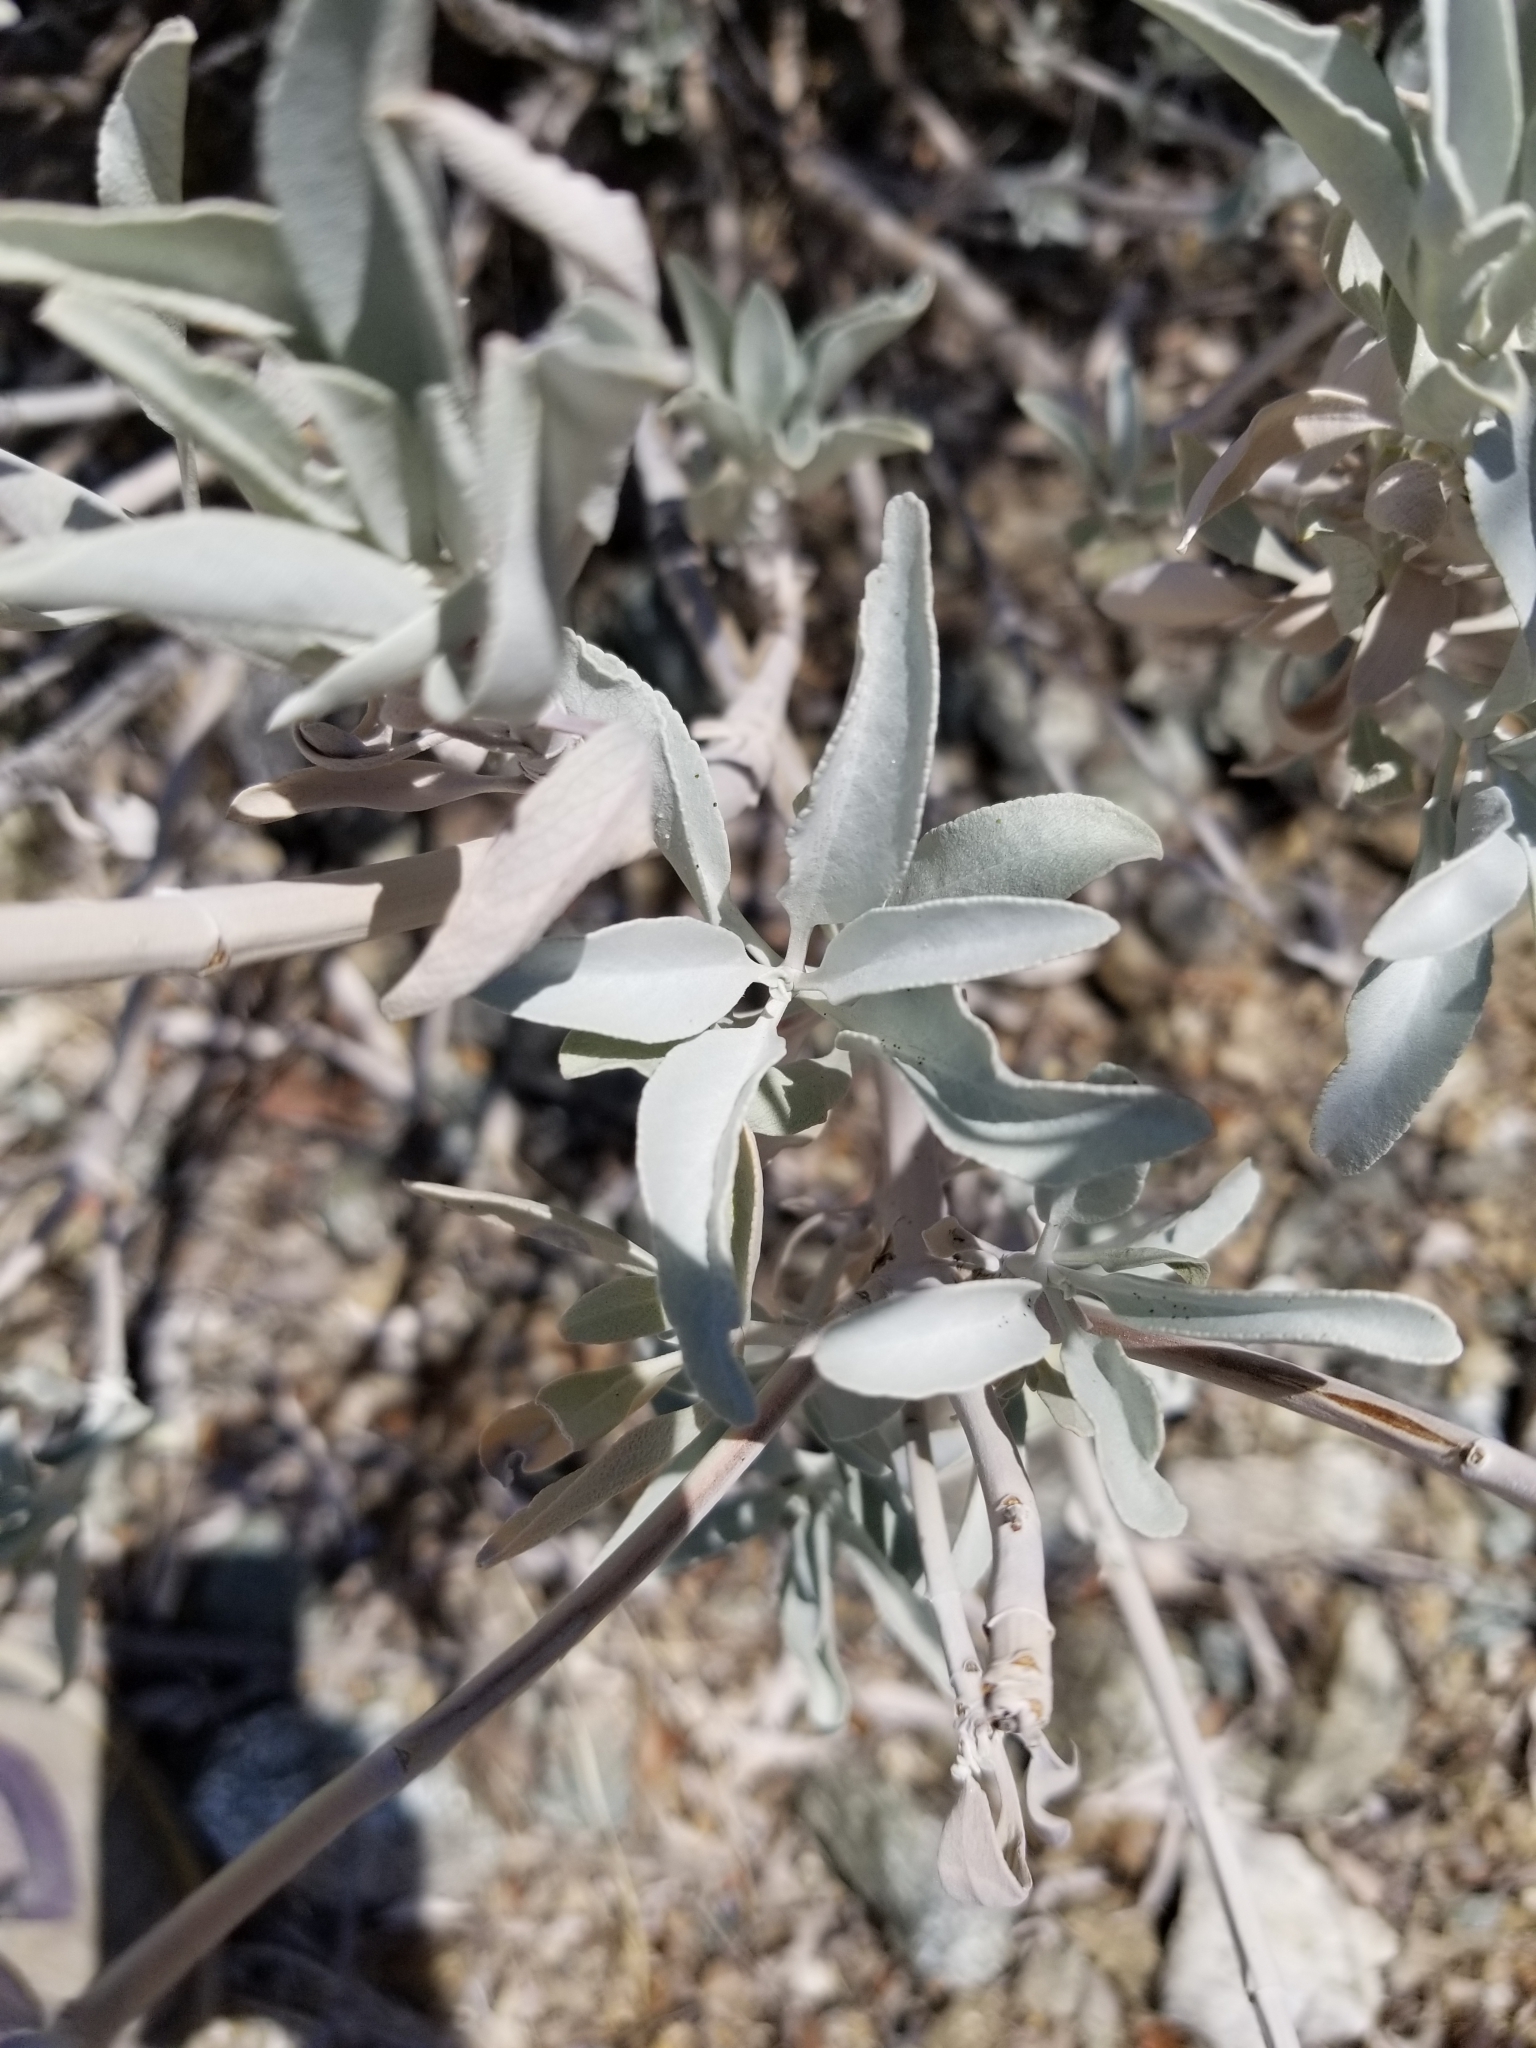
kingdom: Plantae
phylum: Tracheophyta
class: Magnoliopsida
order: Lamiales
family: Lamiaceae
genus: Salvia
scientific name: Salvia apiana
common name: White sage
